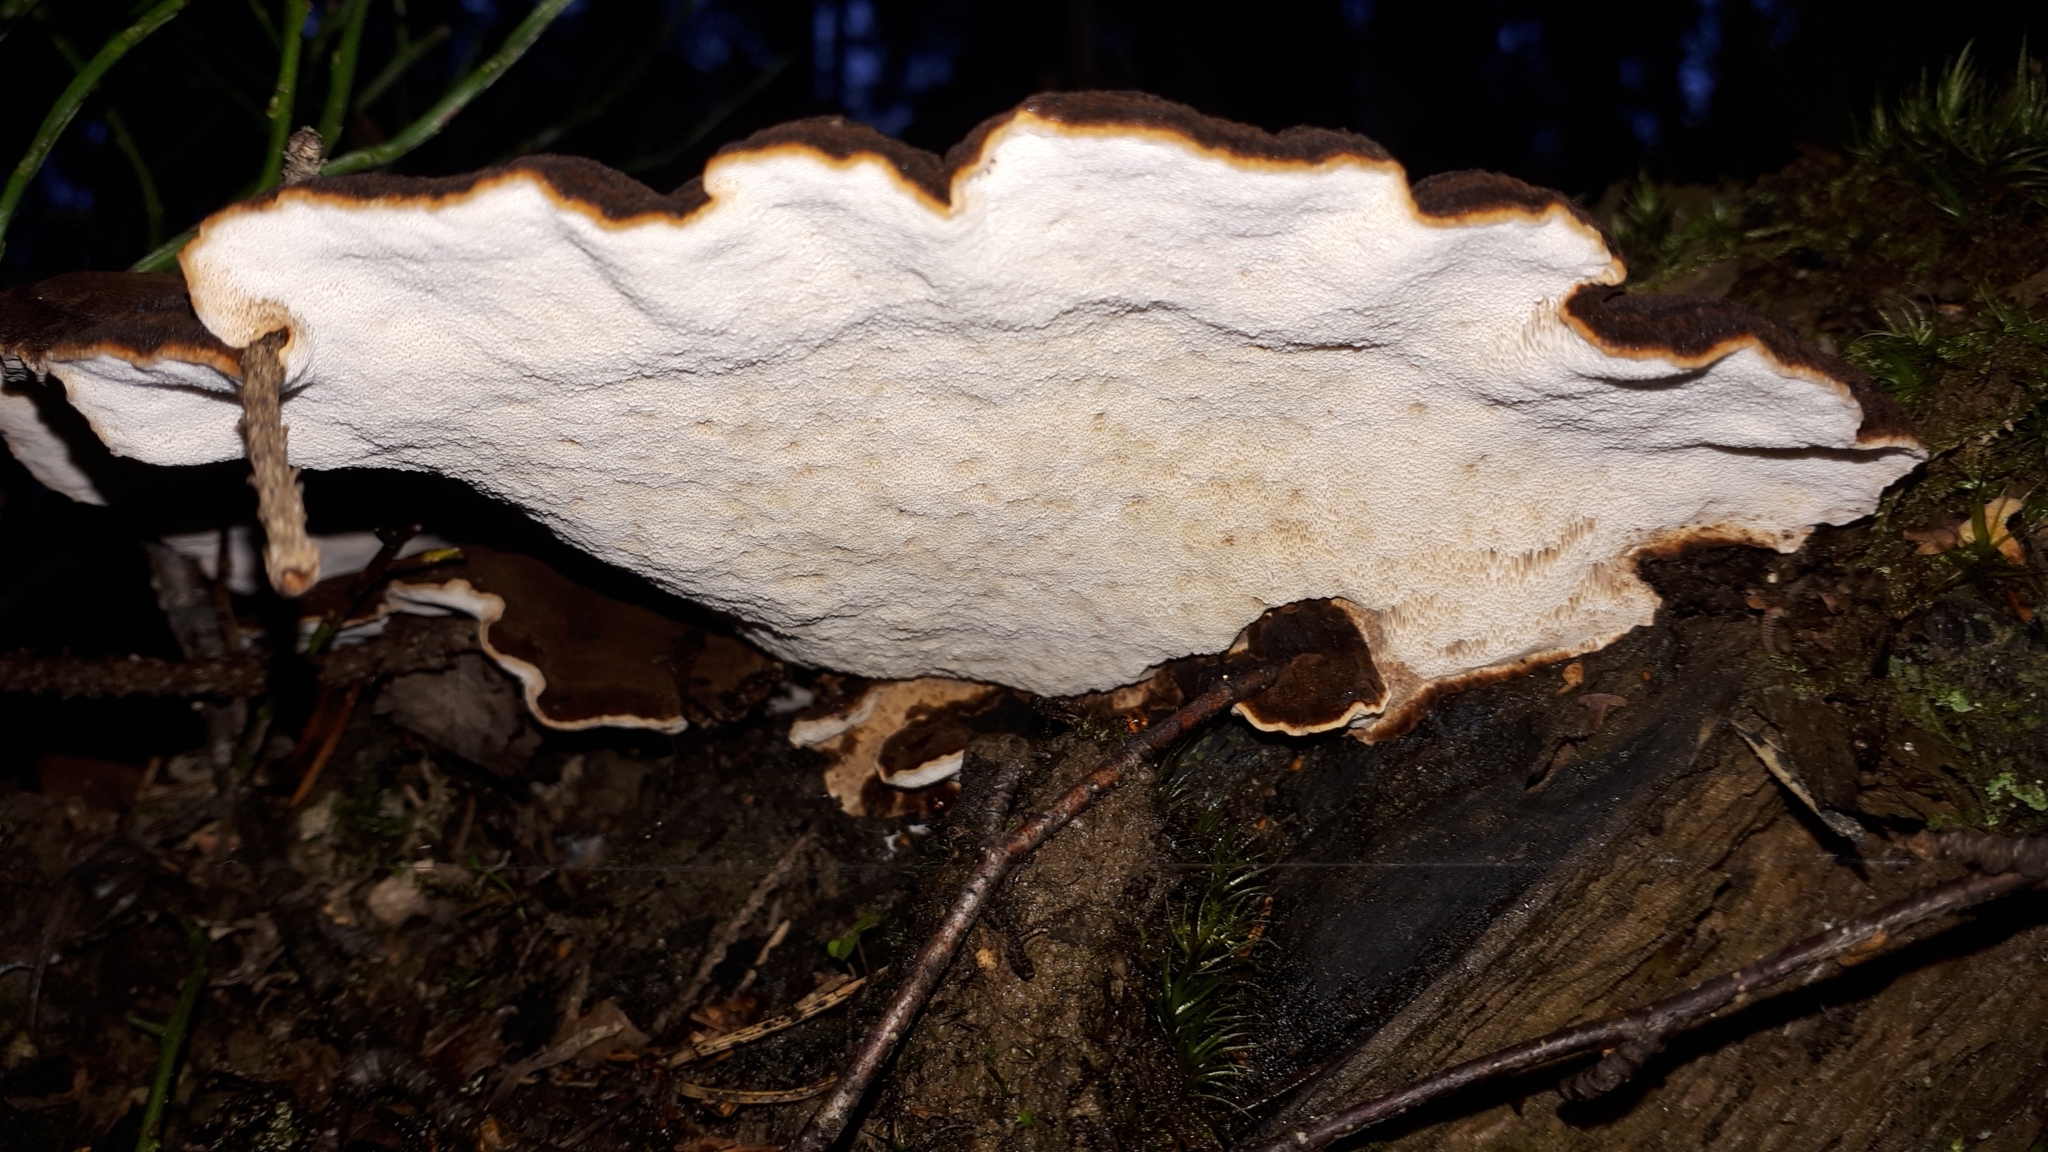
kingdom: Fungi
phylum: Basidiomycota
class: Agaricomycetes
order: Polyporales
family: Ischnodermataceae
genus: Ischnoderma
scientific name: Ischnoderma benzoinum
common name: Benzoin bracket
